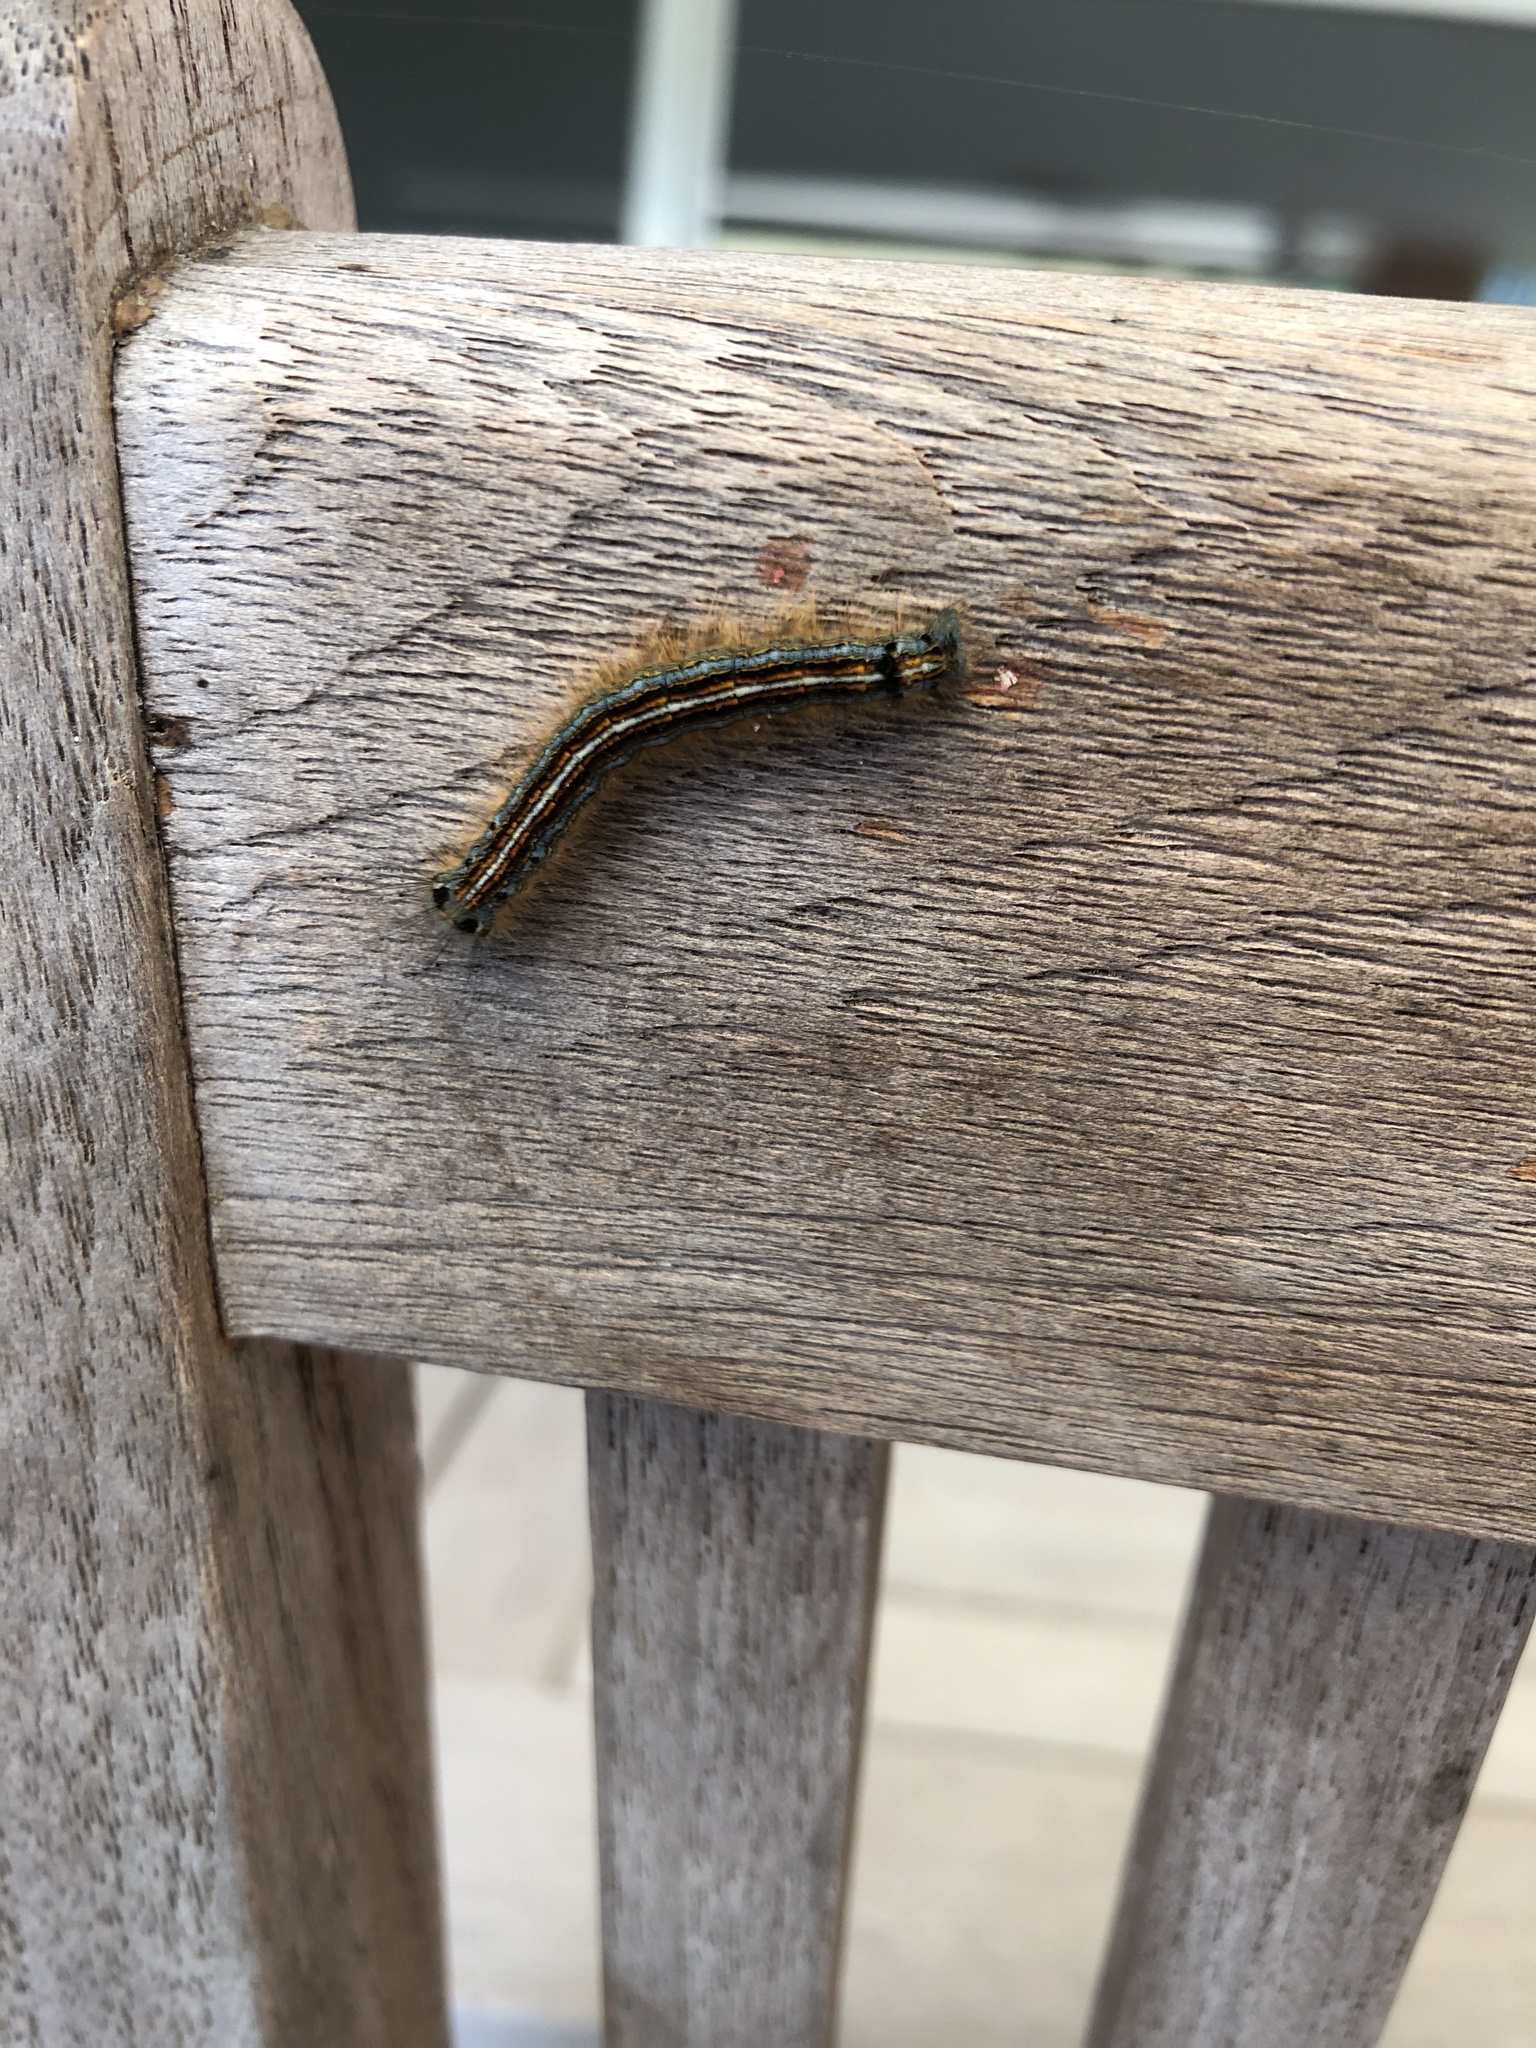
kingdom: Animalia
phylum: Arthropoda
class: Insecta
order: Lepidoptera
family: Lasiocampidae
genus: Malacosoma
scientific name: Malacosoma neustria
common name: The lackey
